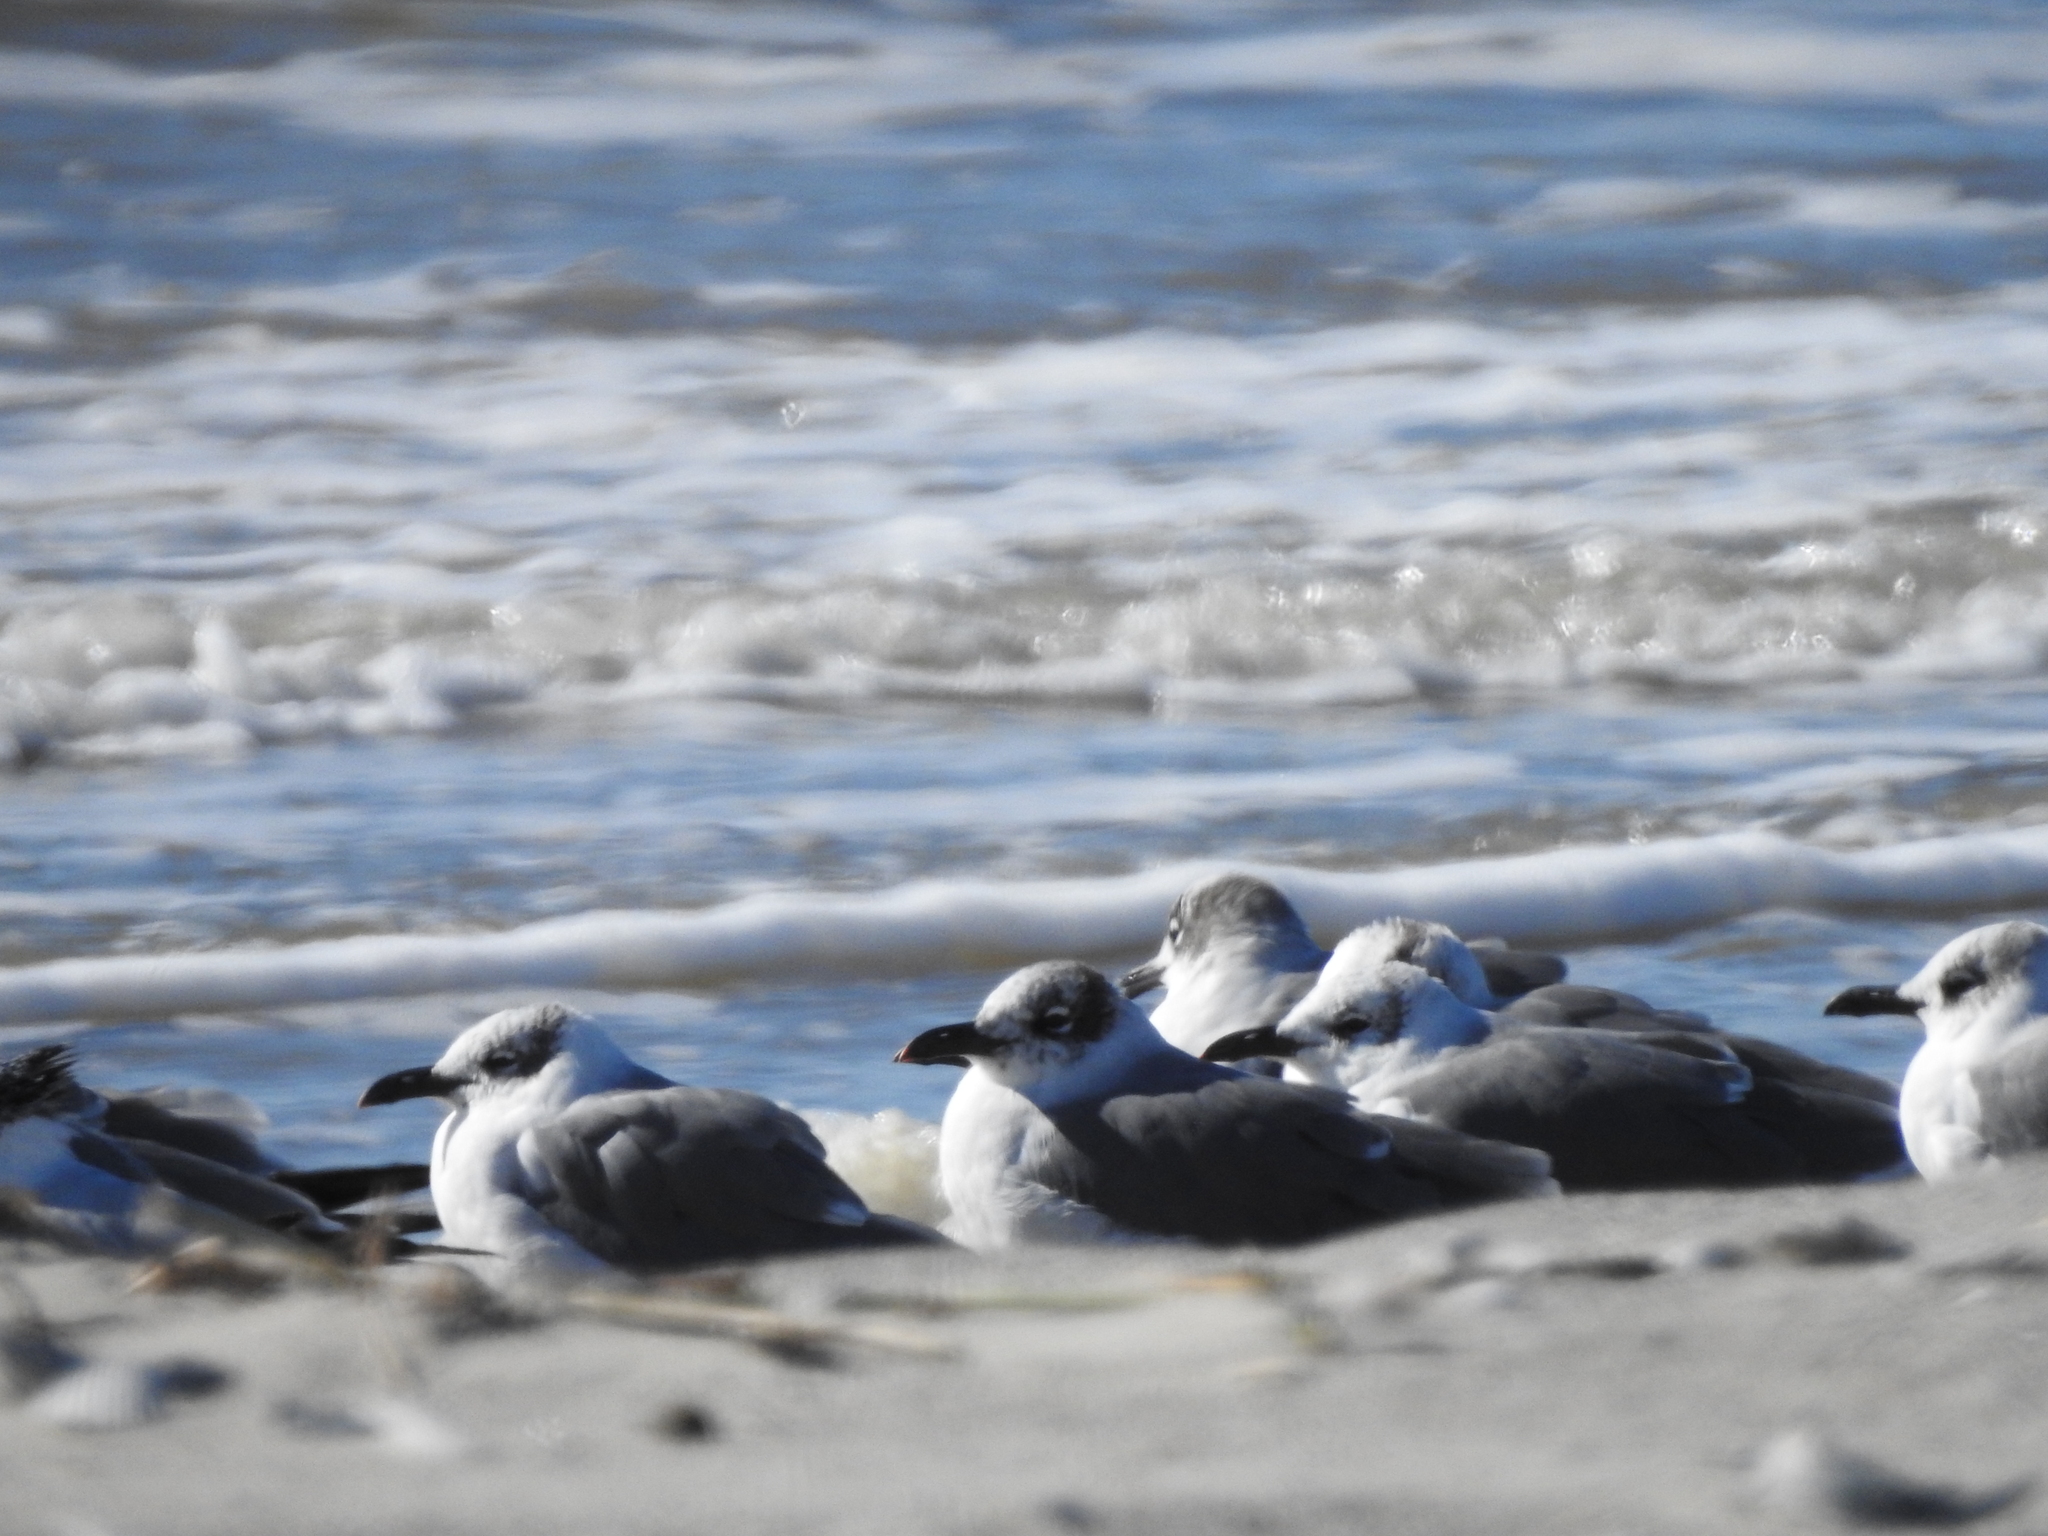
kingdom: Animalia
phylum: Chordata
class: Aves
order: Charadriiformes
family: Laridae
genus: Leucophaeus
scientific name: Leucophaeus atricilla
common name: Laughing gull
